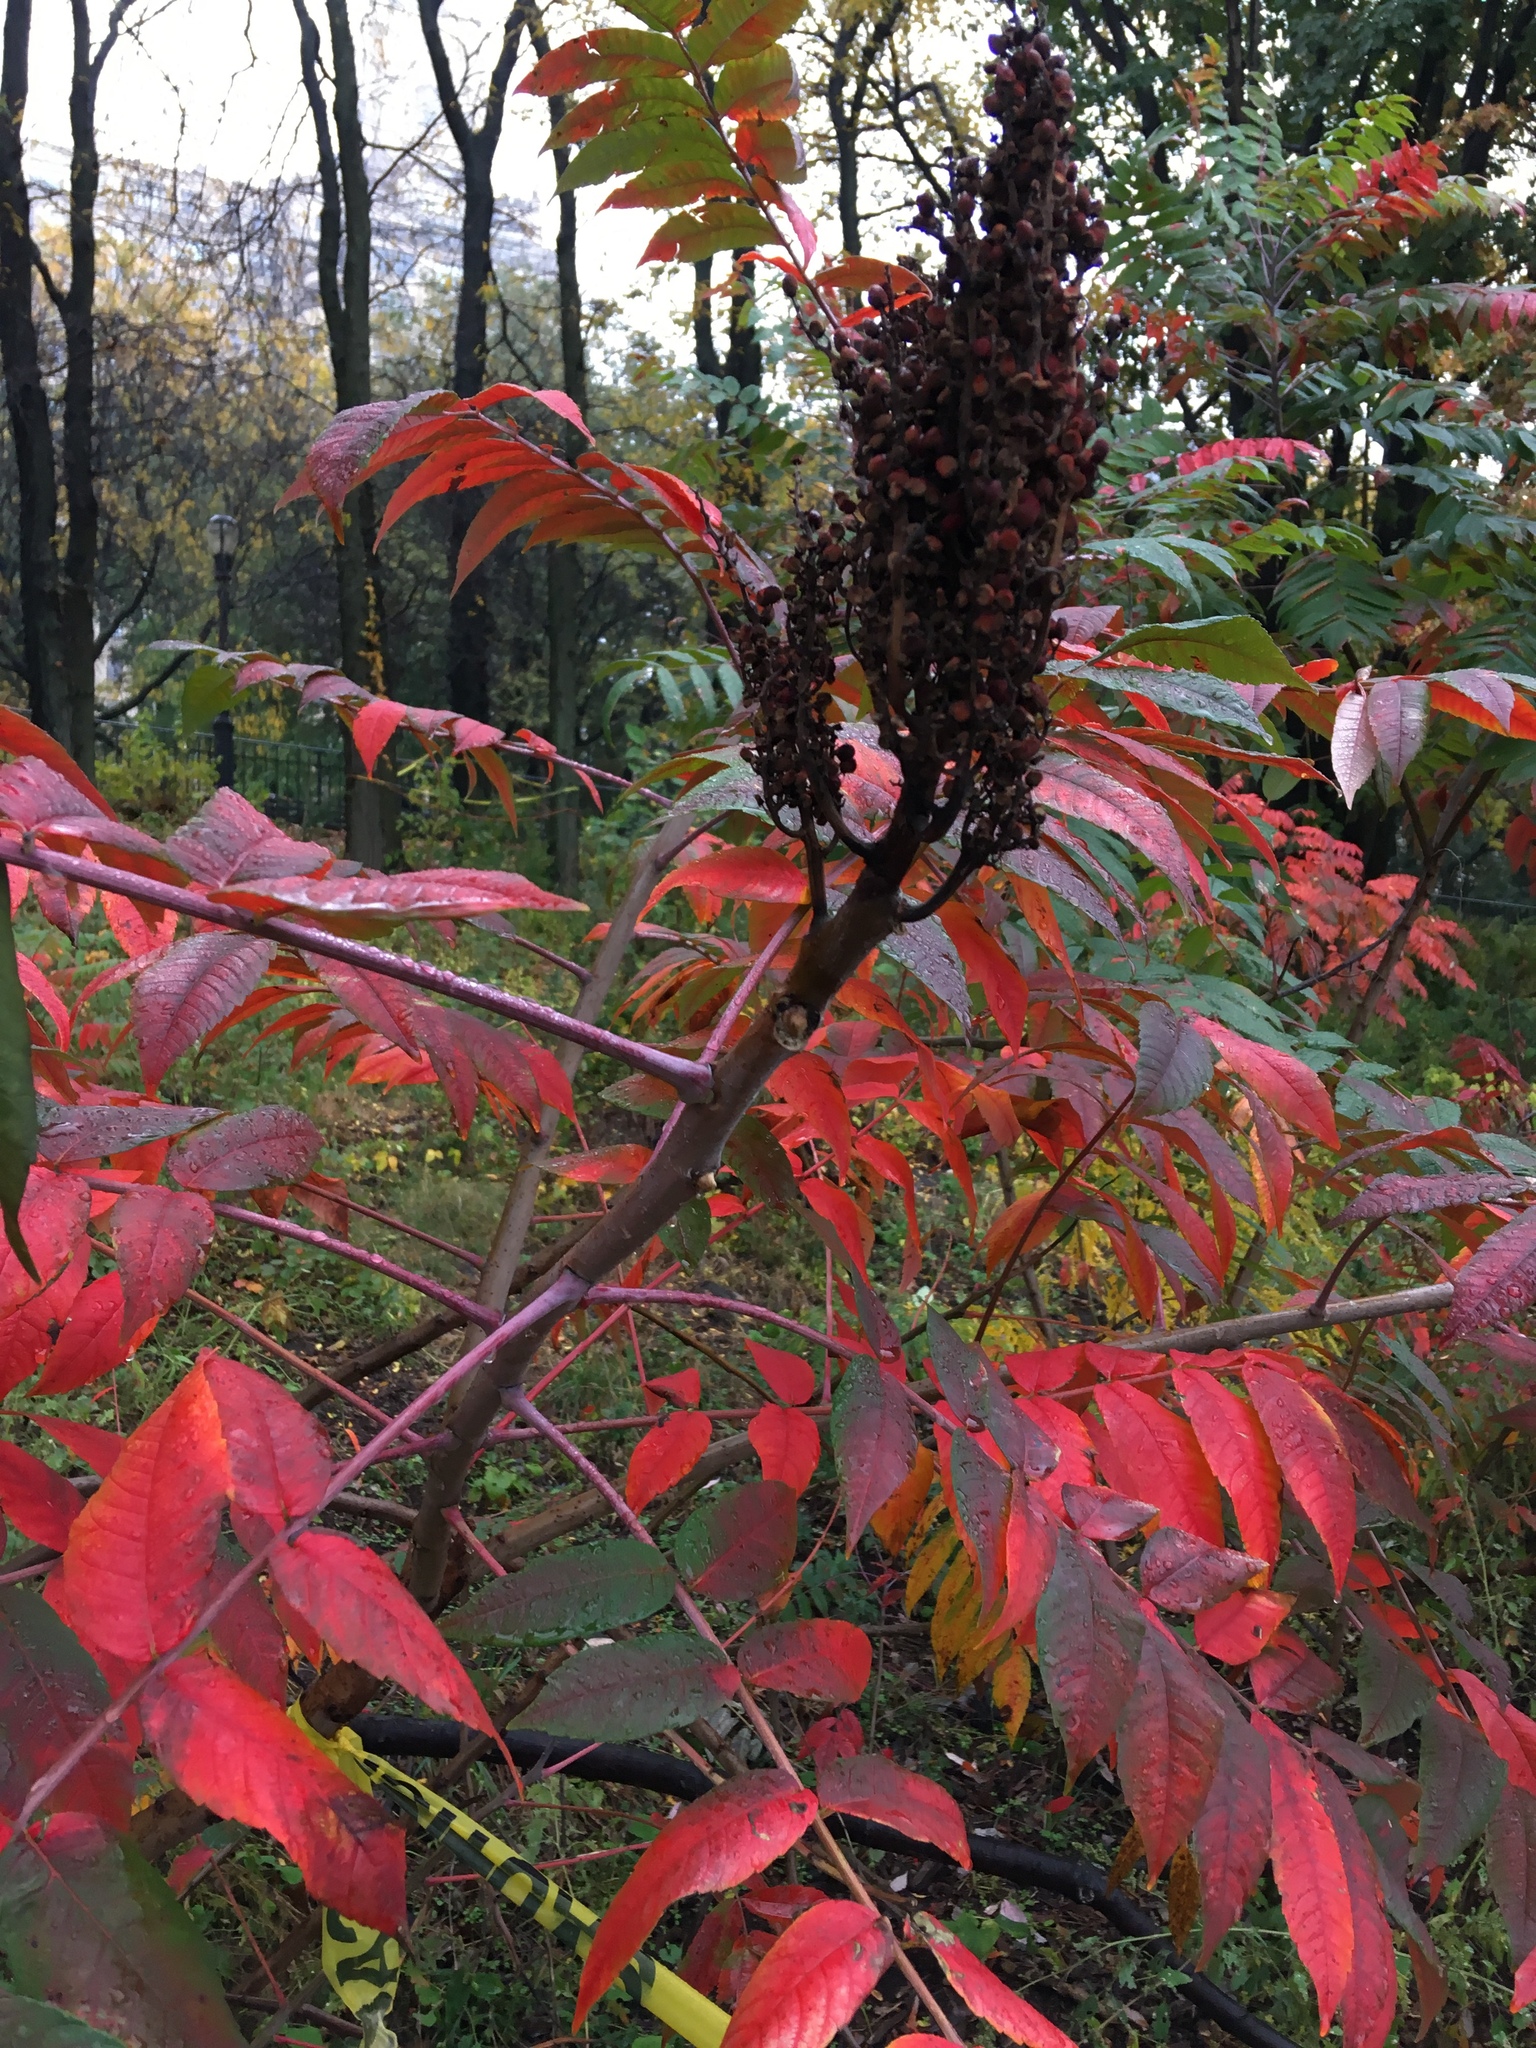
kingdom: Plantae
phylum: Tracheophyta
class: Magnoliopsida
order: Sapindales
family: Anacardiaceae
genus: Rhus
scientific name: Rhus glabra
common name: Scarlet sumac
